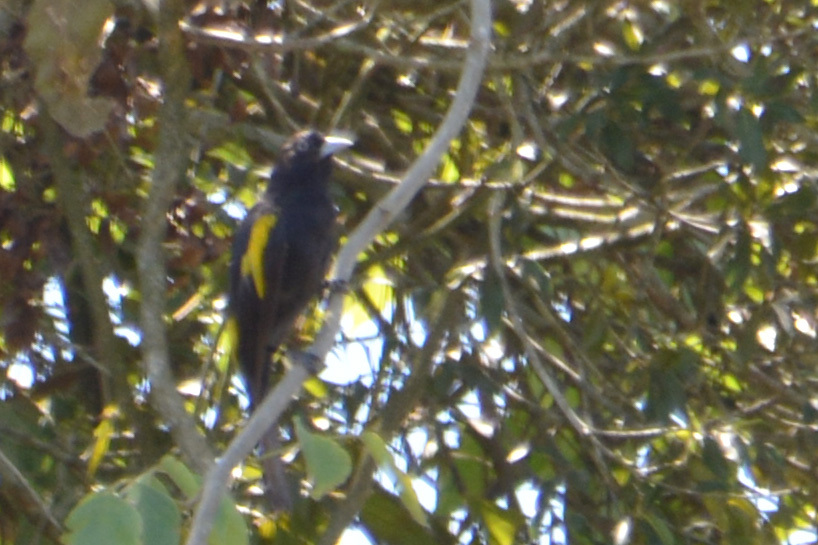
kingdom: Animalia
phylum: Chordata
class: Aves
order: Passeriformes
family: Icteridae
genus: Cacicus
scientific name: Cacicus chrysopterus
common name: Golden-winged cacique
